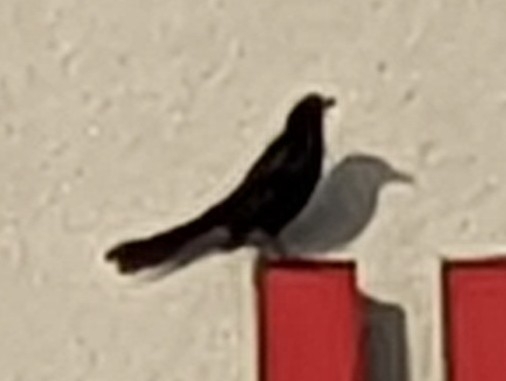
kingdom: Animalia
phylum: Chordata
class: Aves
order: Passeriformes
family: Icteridae
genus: Quiscalus
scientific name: Quiscalus mexicanus
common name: Great-tailed grackle
